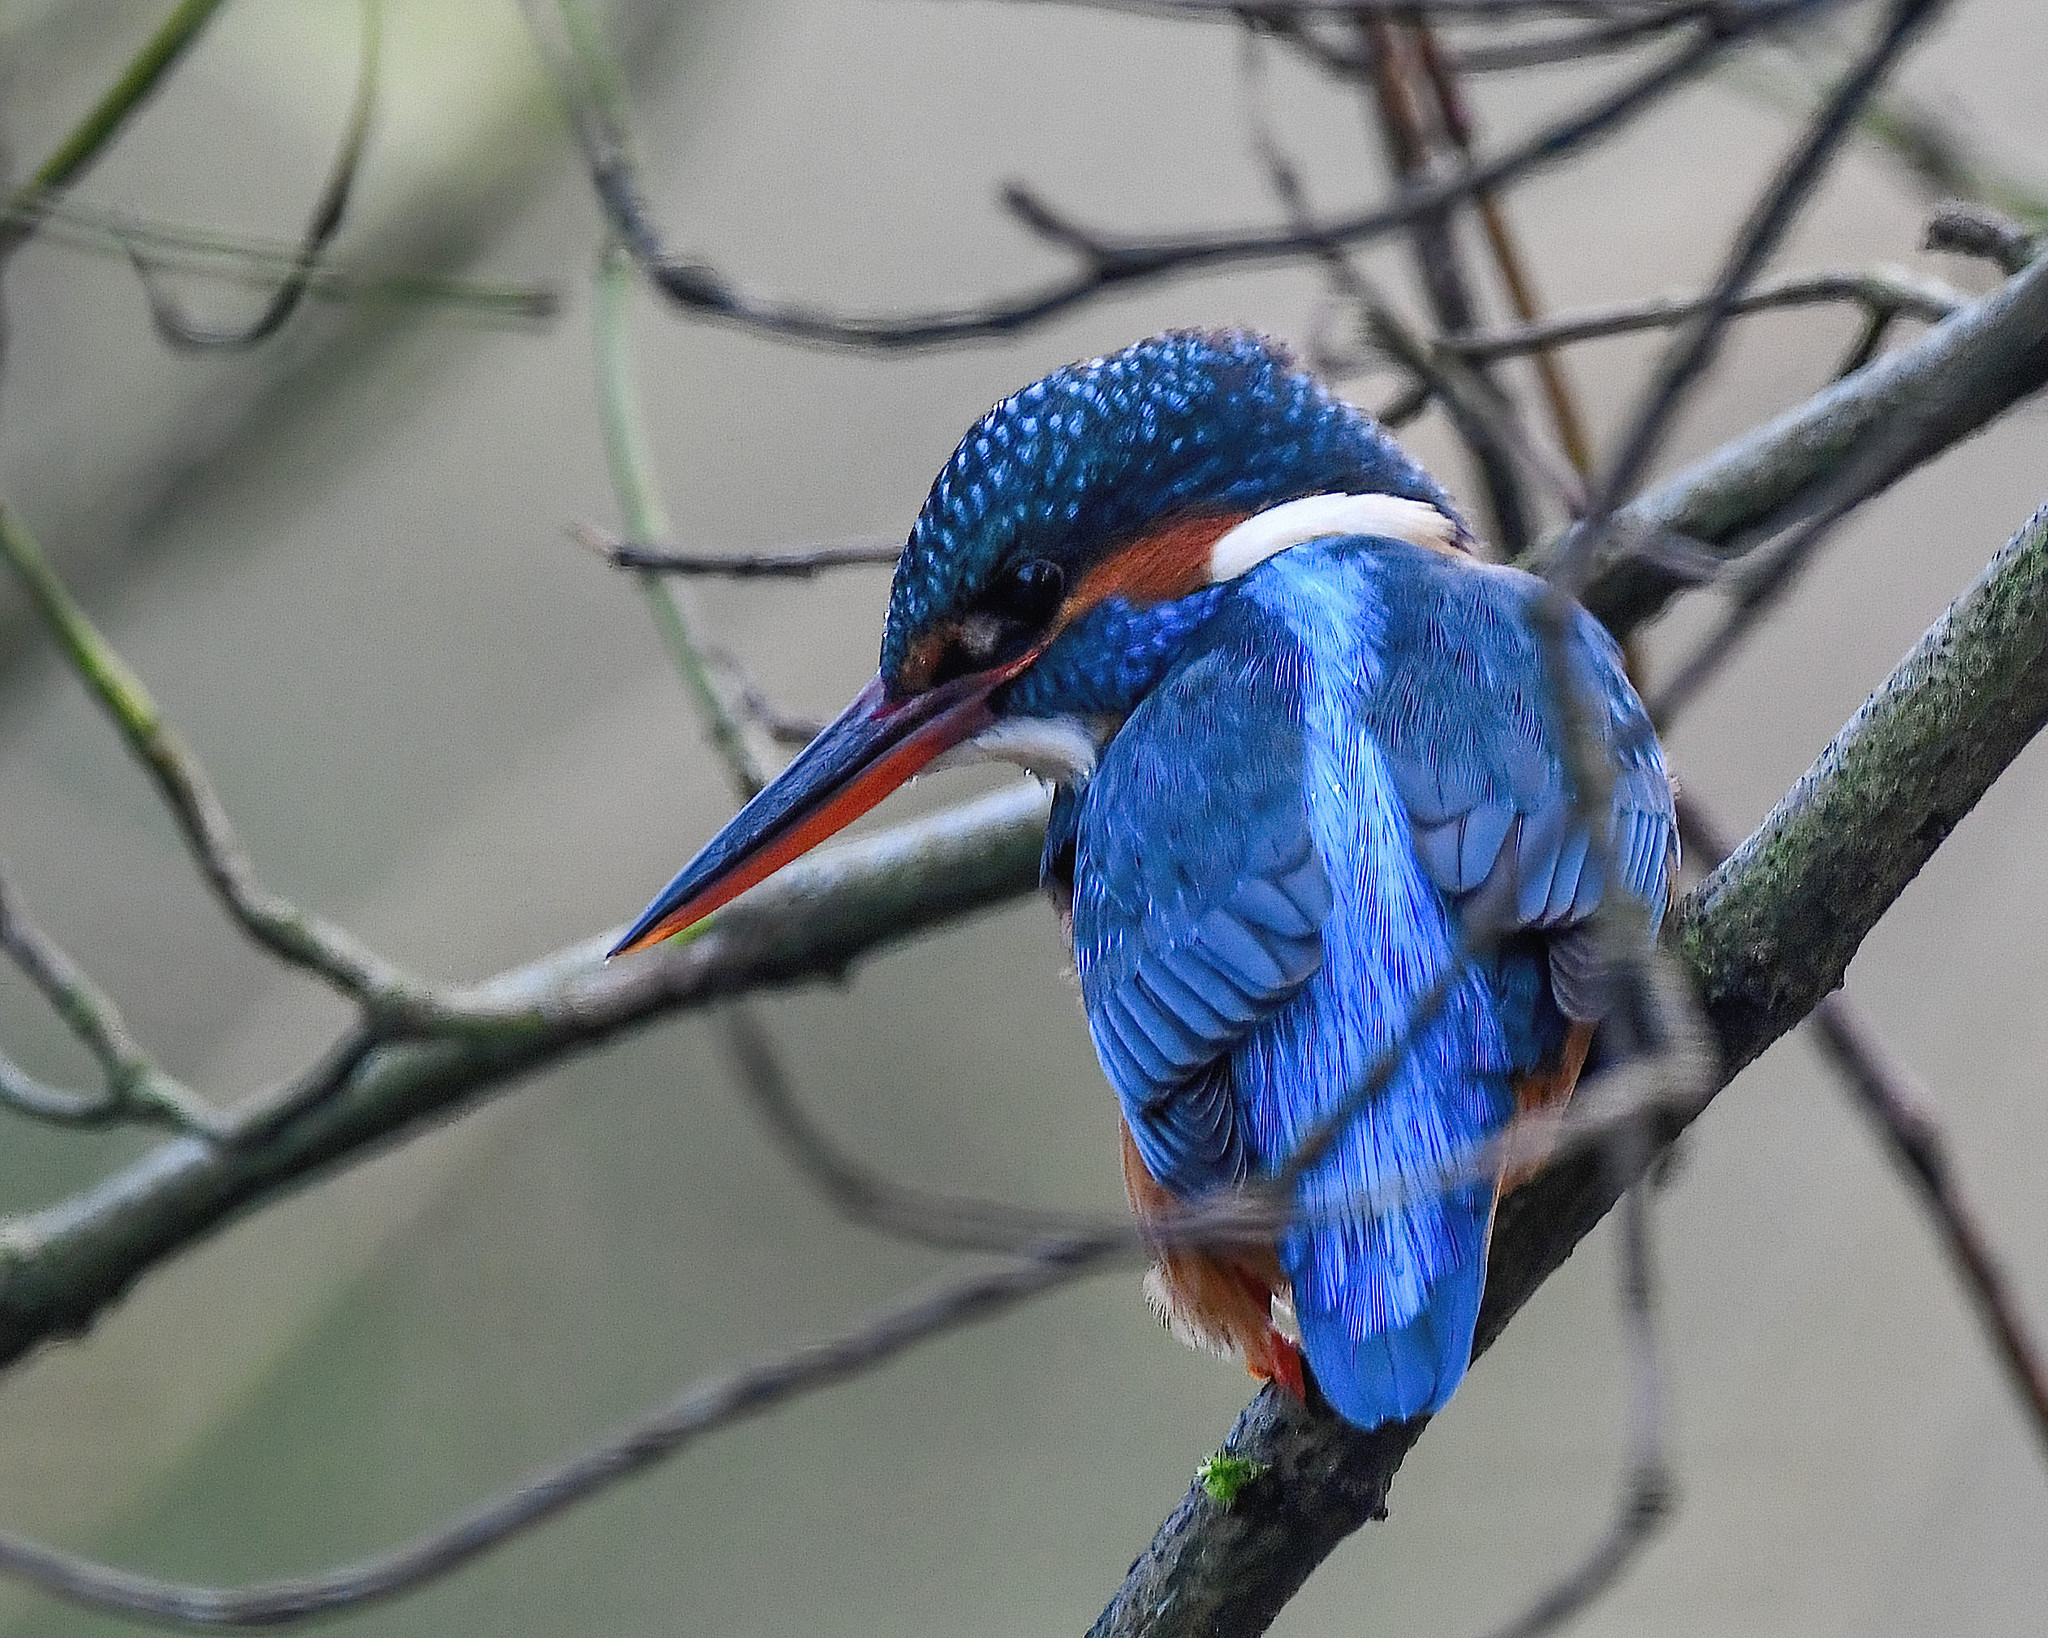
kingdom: Animalia
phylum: Chordata
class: Aves
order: Coraciiformes
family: Alcedinidae
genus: Alcedo
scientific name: Alcedo atthis
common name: Common kingfisher
